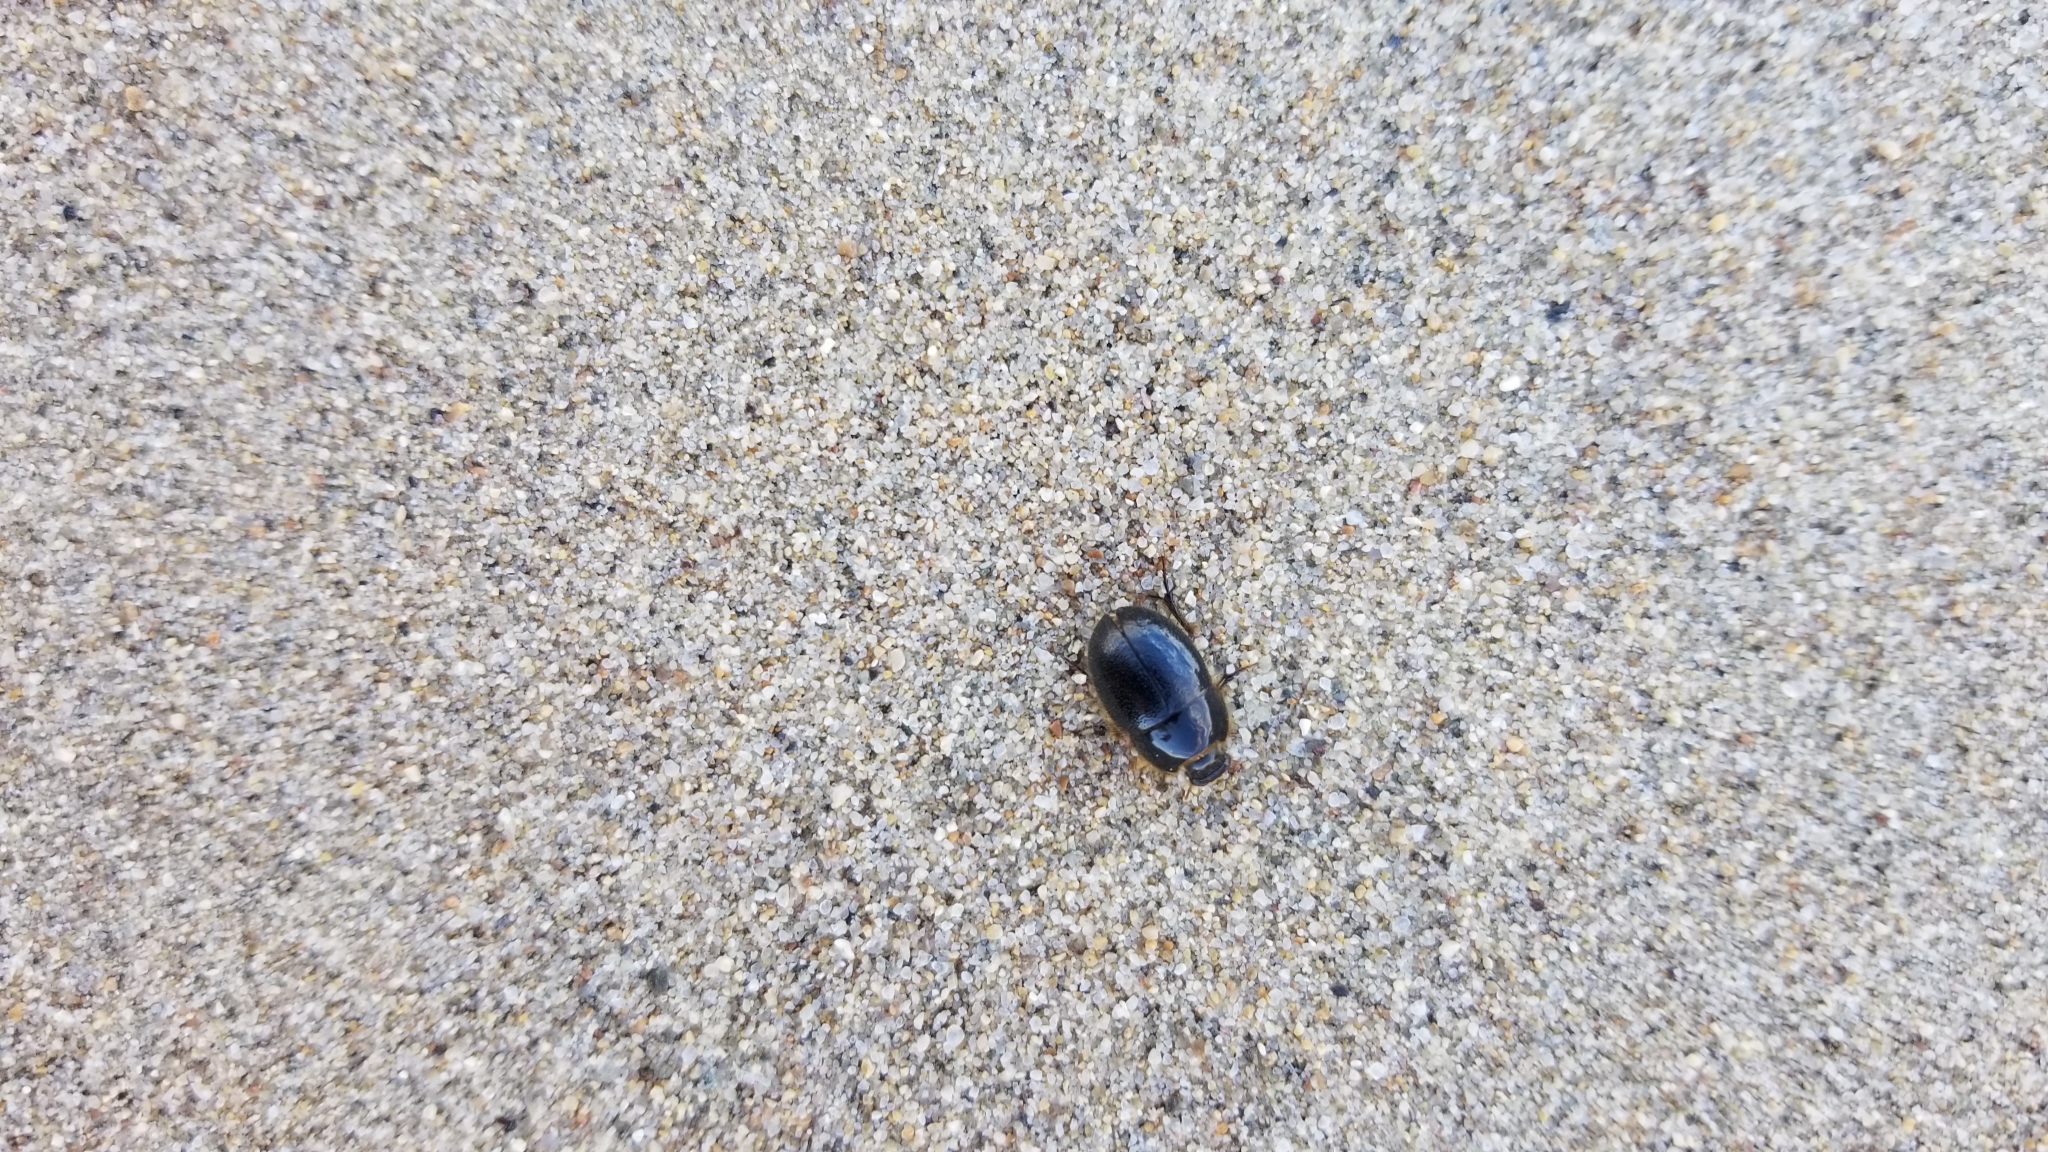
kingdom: Animalia
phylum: Arthropoda
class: Insecta
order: Coleoptera
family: Tenebrionidae
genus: Coelus
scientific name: Coelus ciliatus
